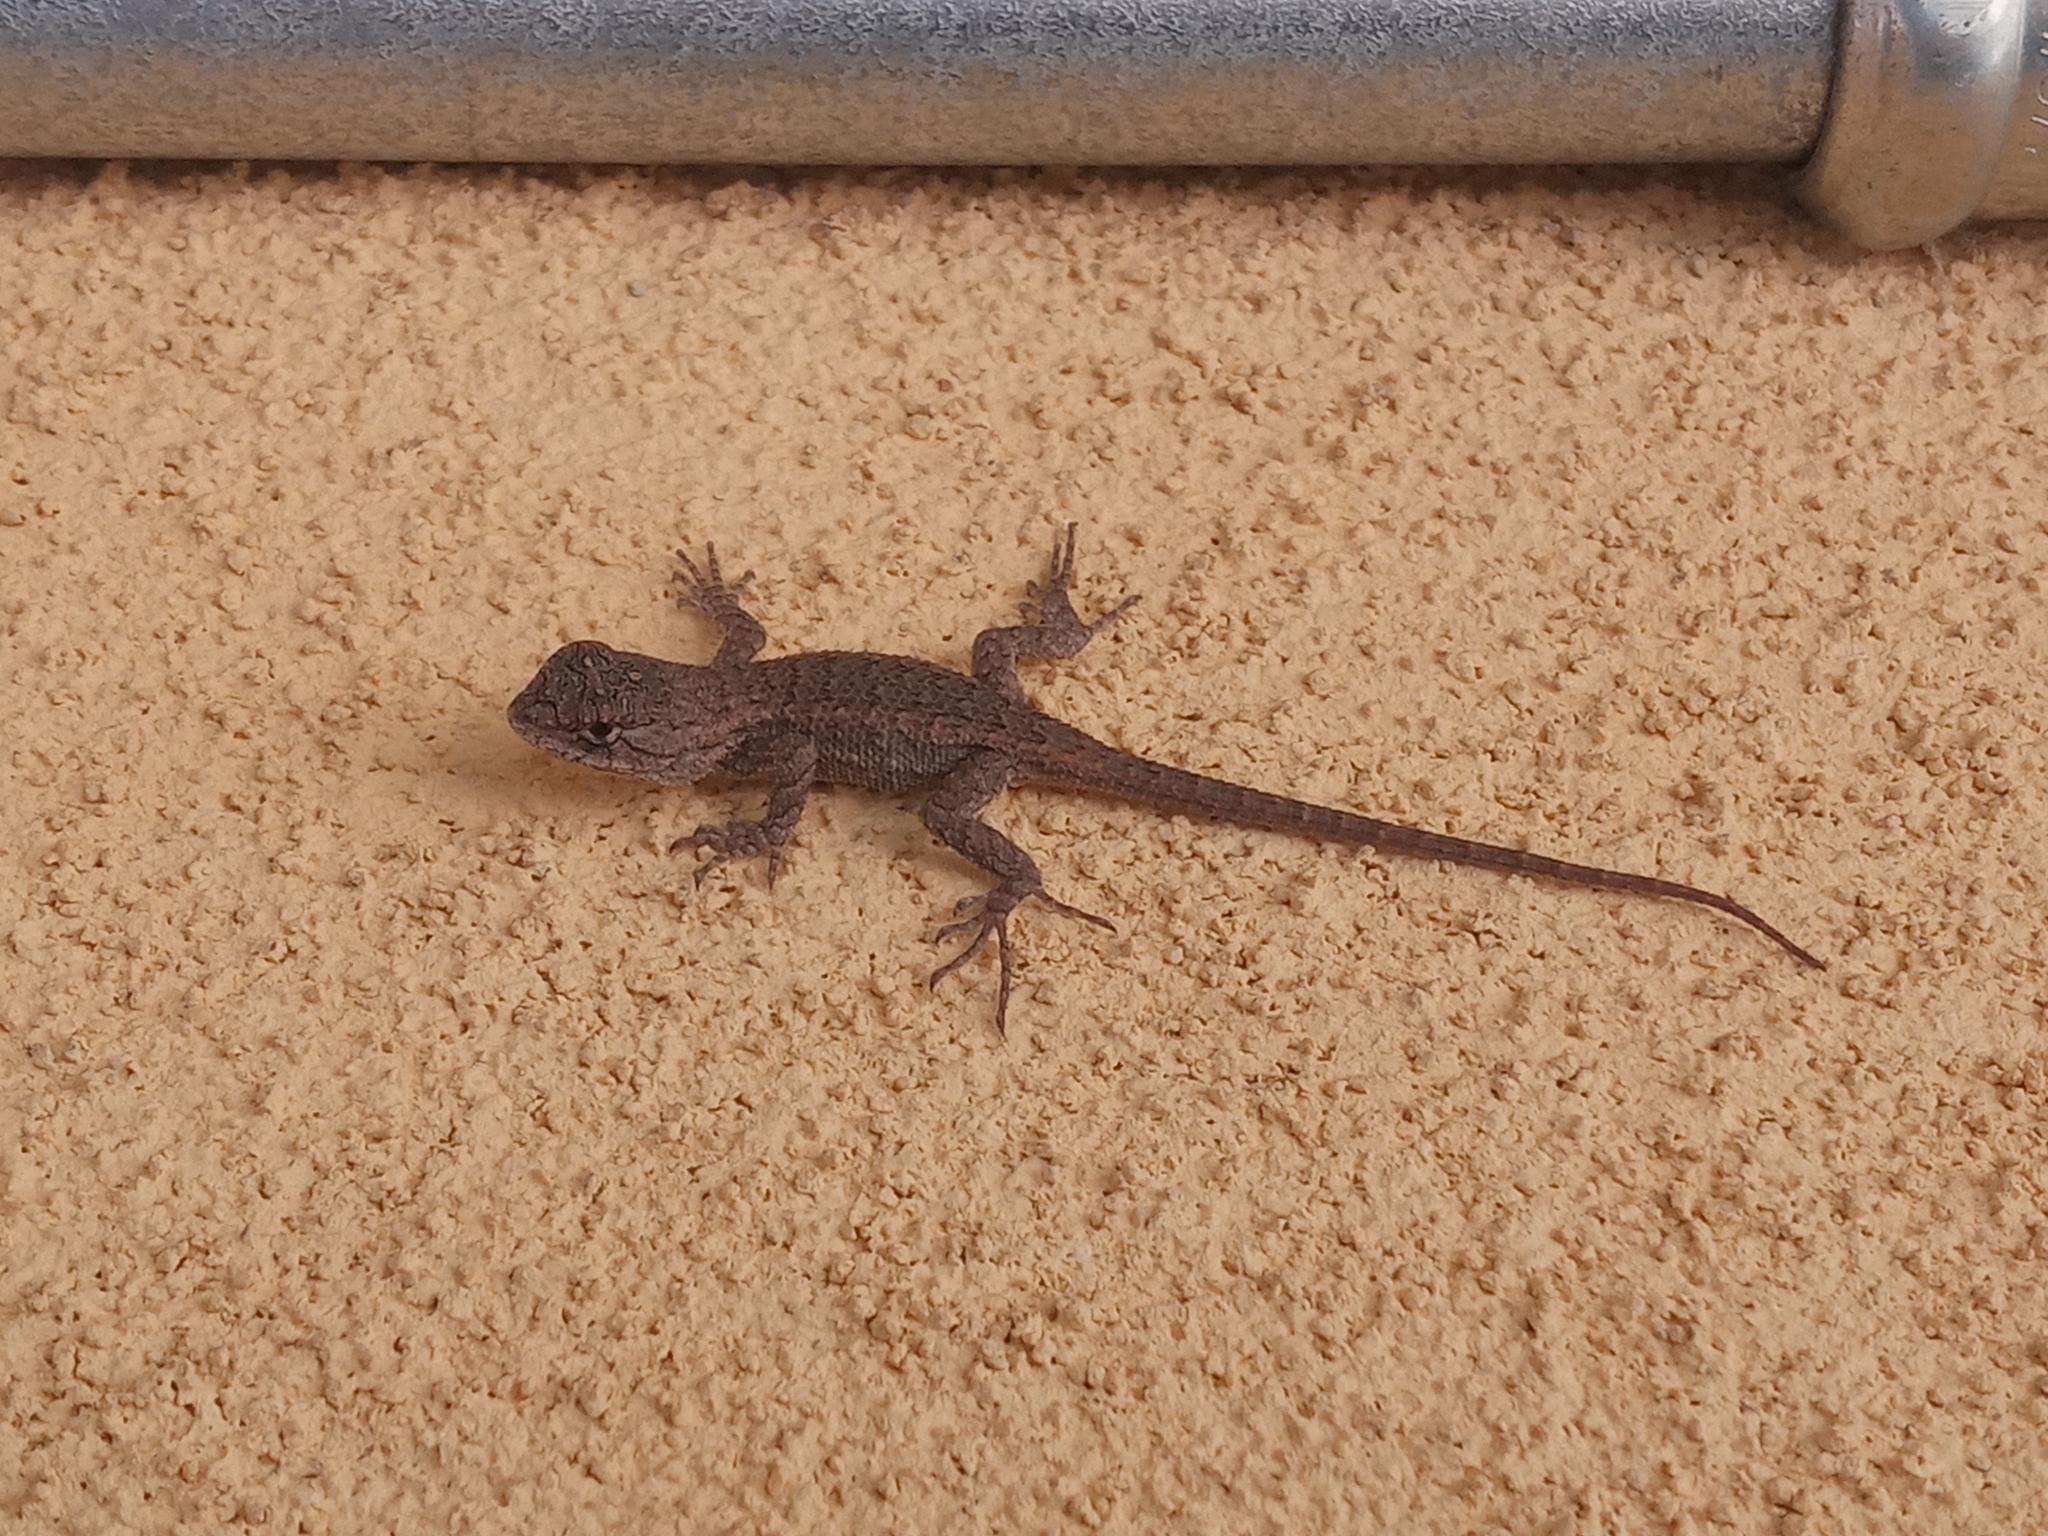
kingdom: Animalia
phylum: Chordata
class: Squamata
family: Phrynosomatidae
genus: Sceloporus
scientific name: Sceloporus occidentalis
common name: Western fence lizard
